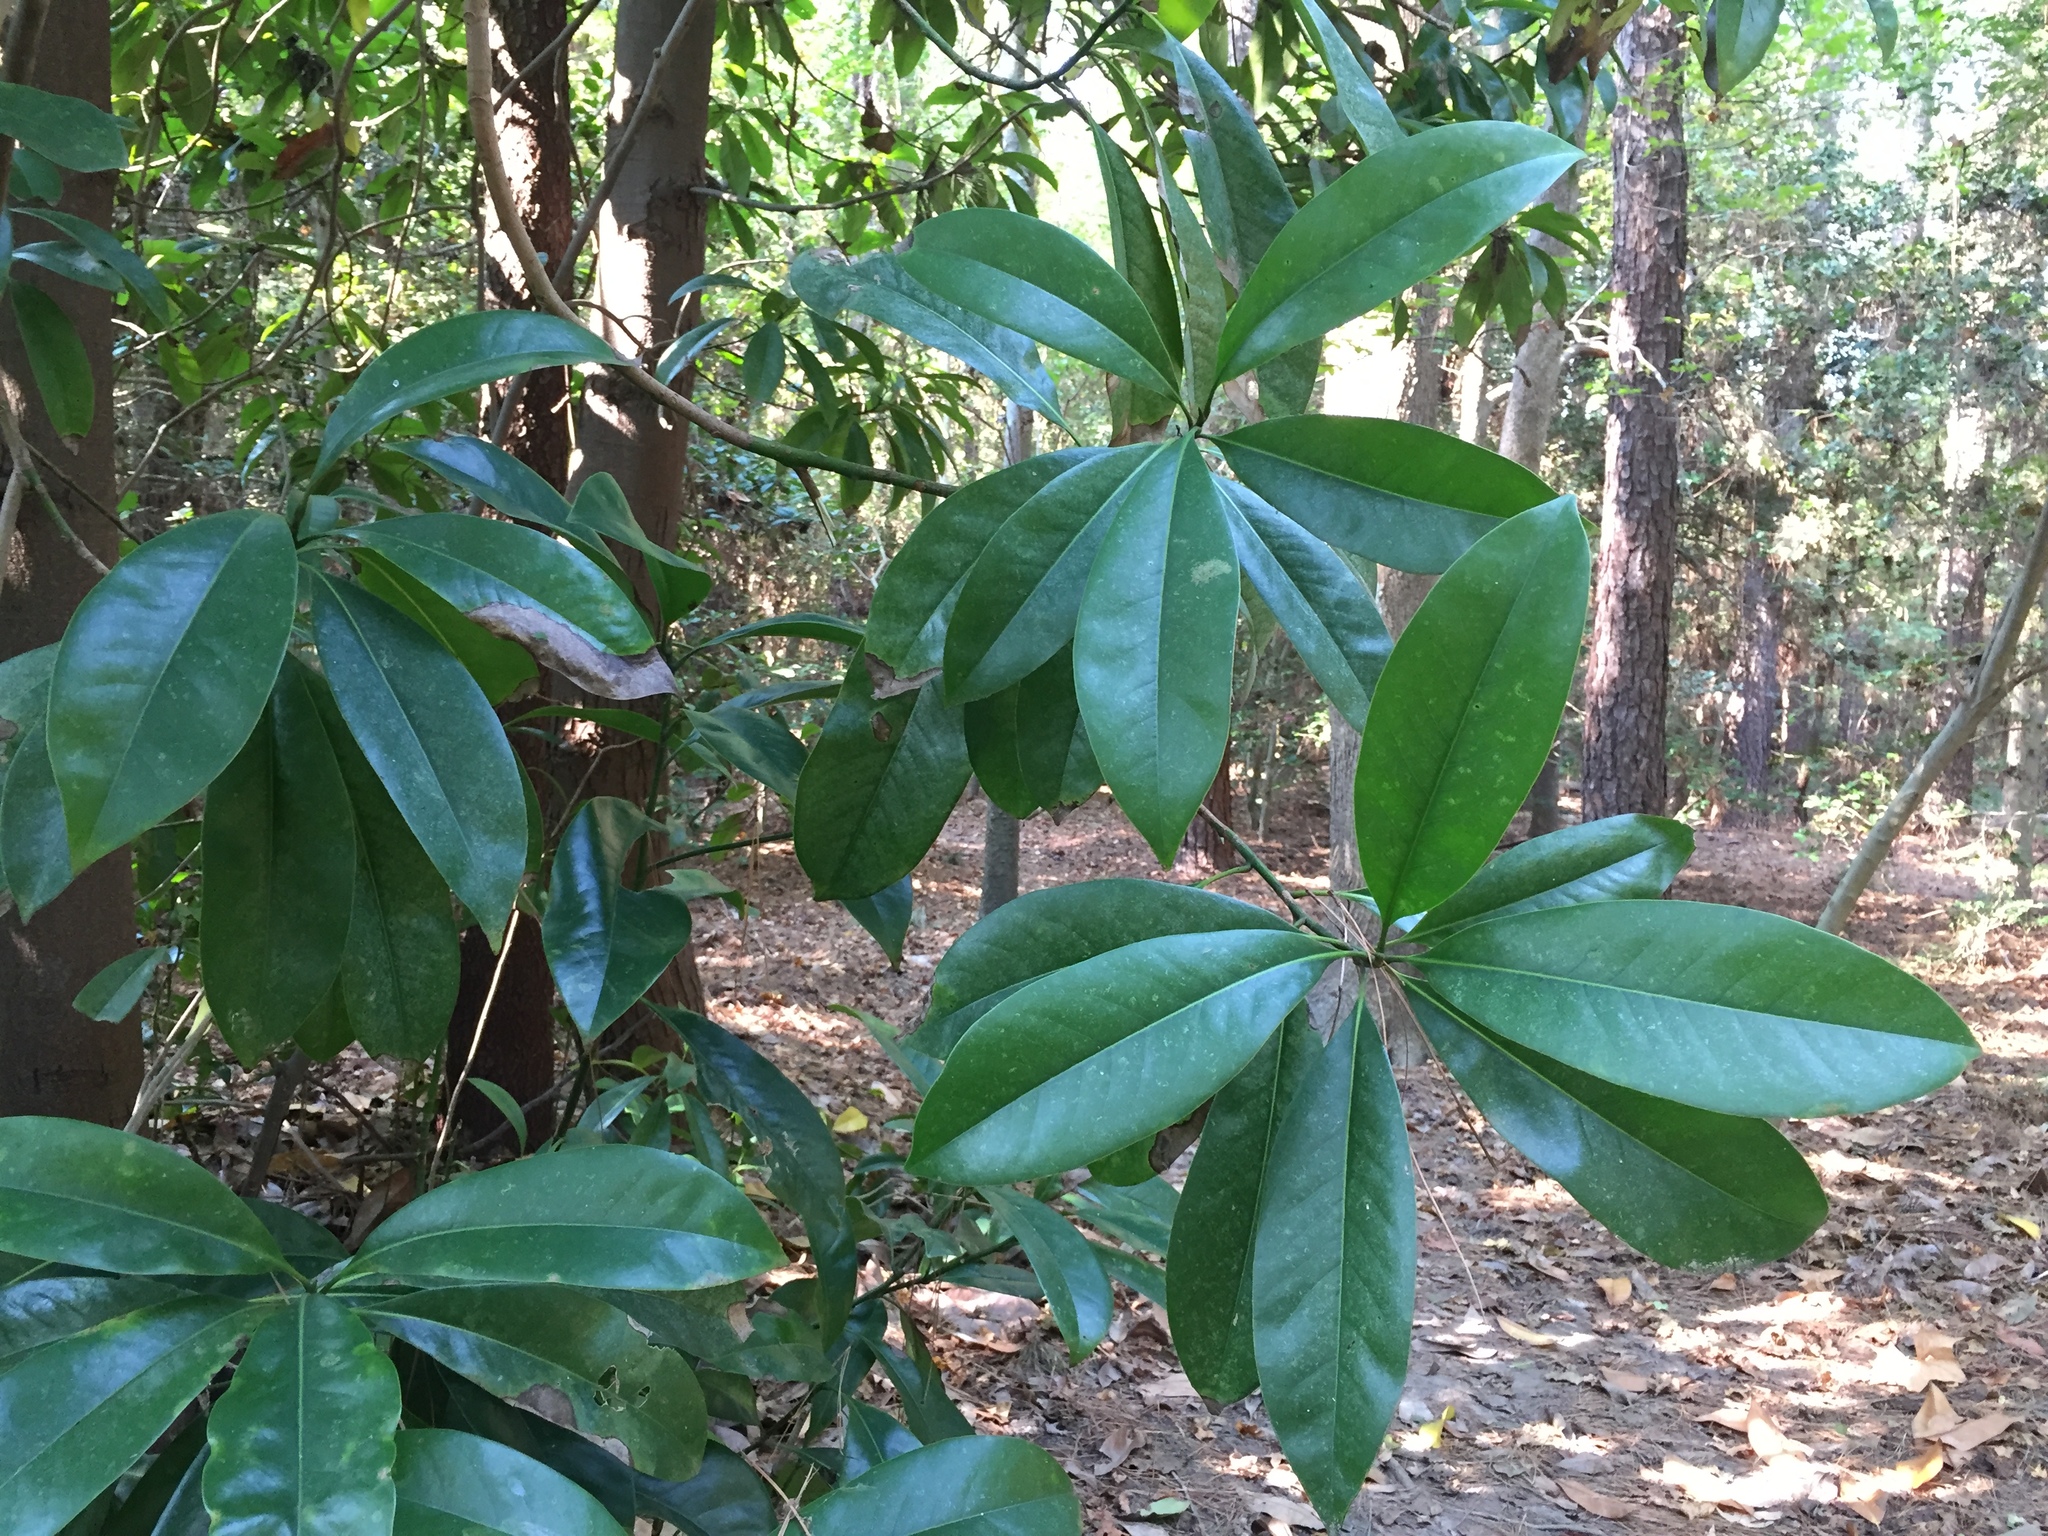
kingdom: Plantae
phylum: Tracheophyta
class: Magnoliopsida
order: Magnoliales
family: Magnoliaceae
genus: Magnolia
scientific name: Magnolia grandiflora
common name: Southern magnolia
